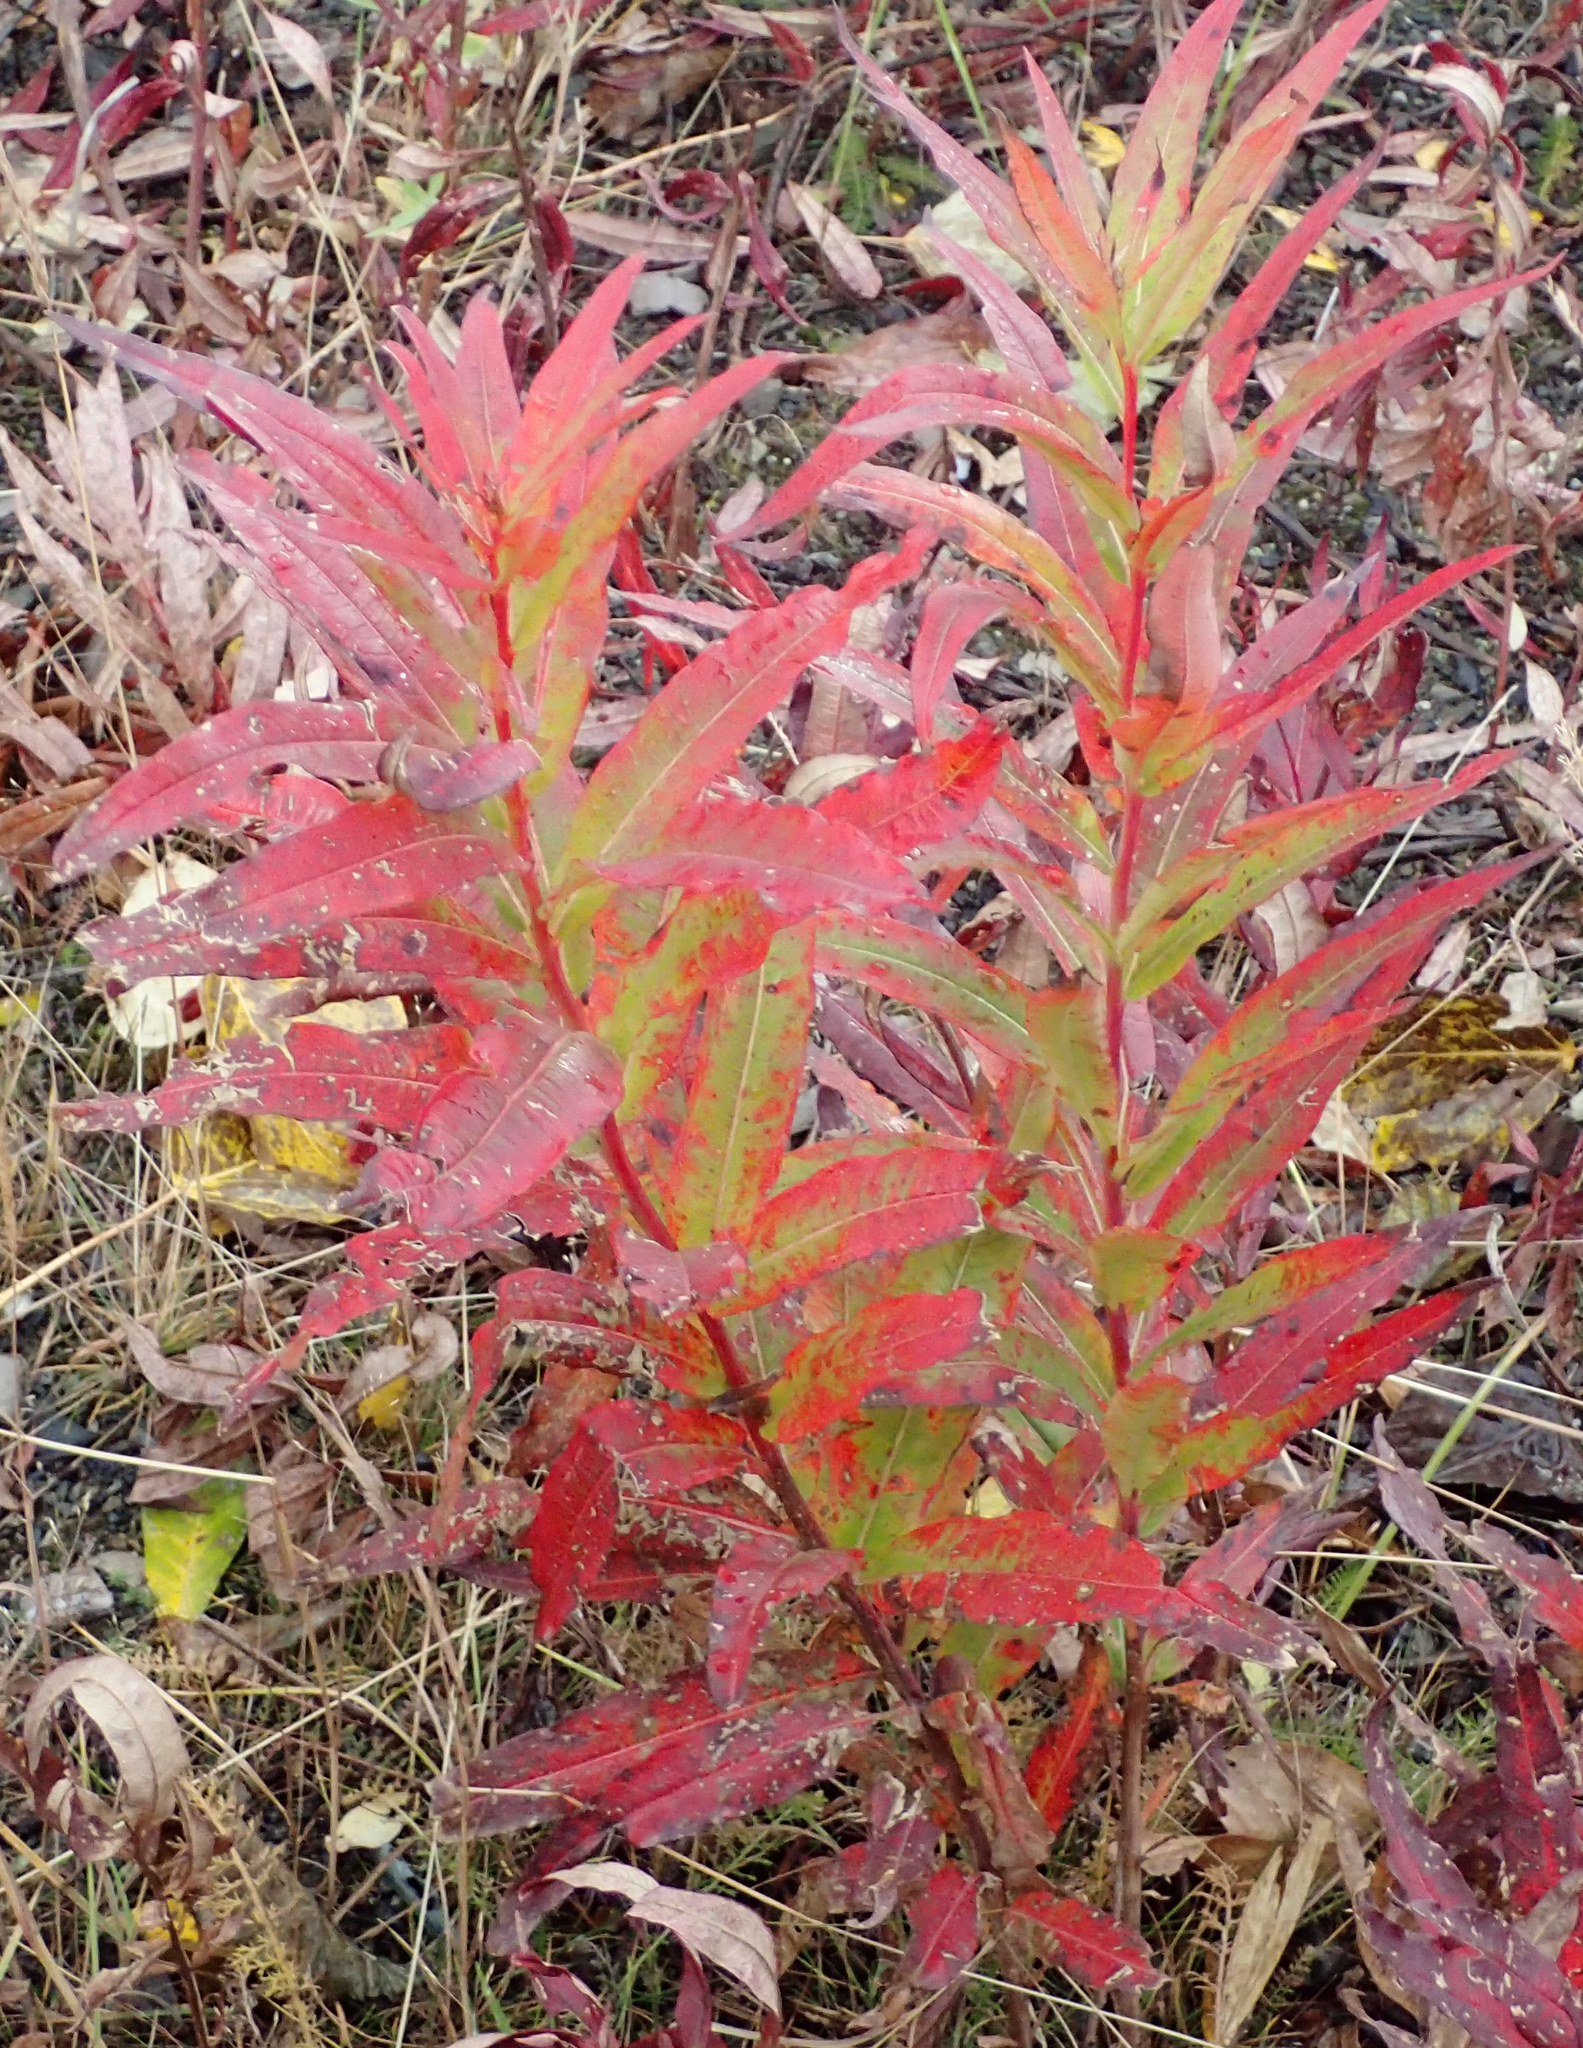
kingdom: Plantae
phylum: Tracheophyta
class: Magnoliopsida
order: Myrtales
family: Onagraceae
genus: Chamaenerion
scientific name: Chamaenerion angustifolium
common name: Fireweed
